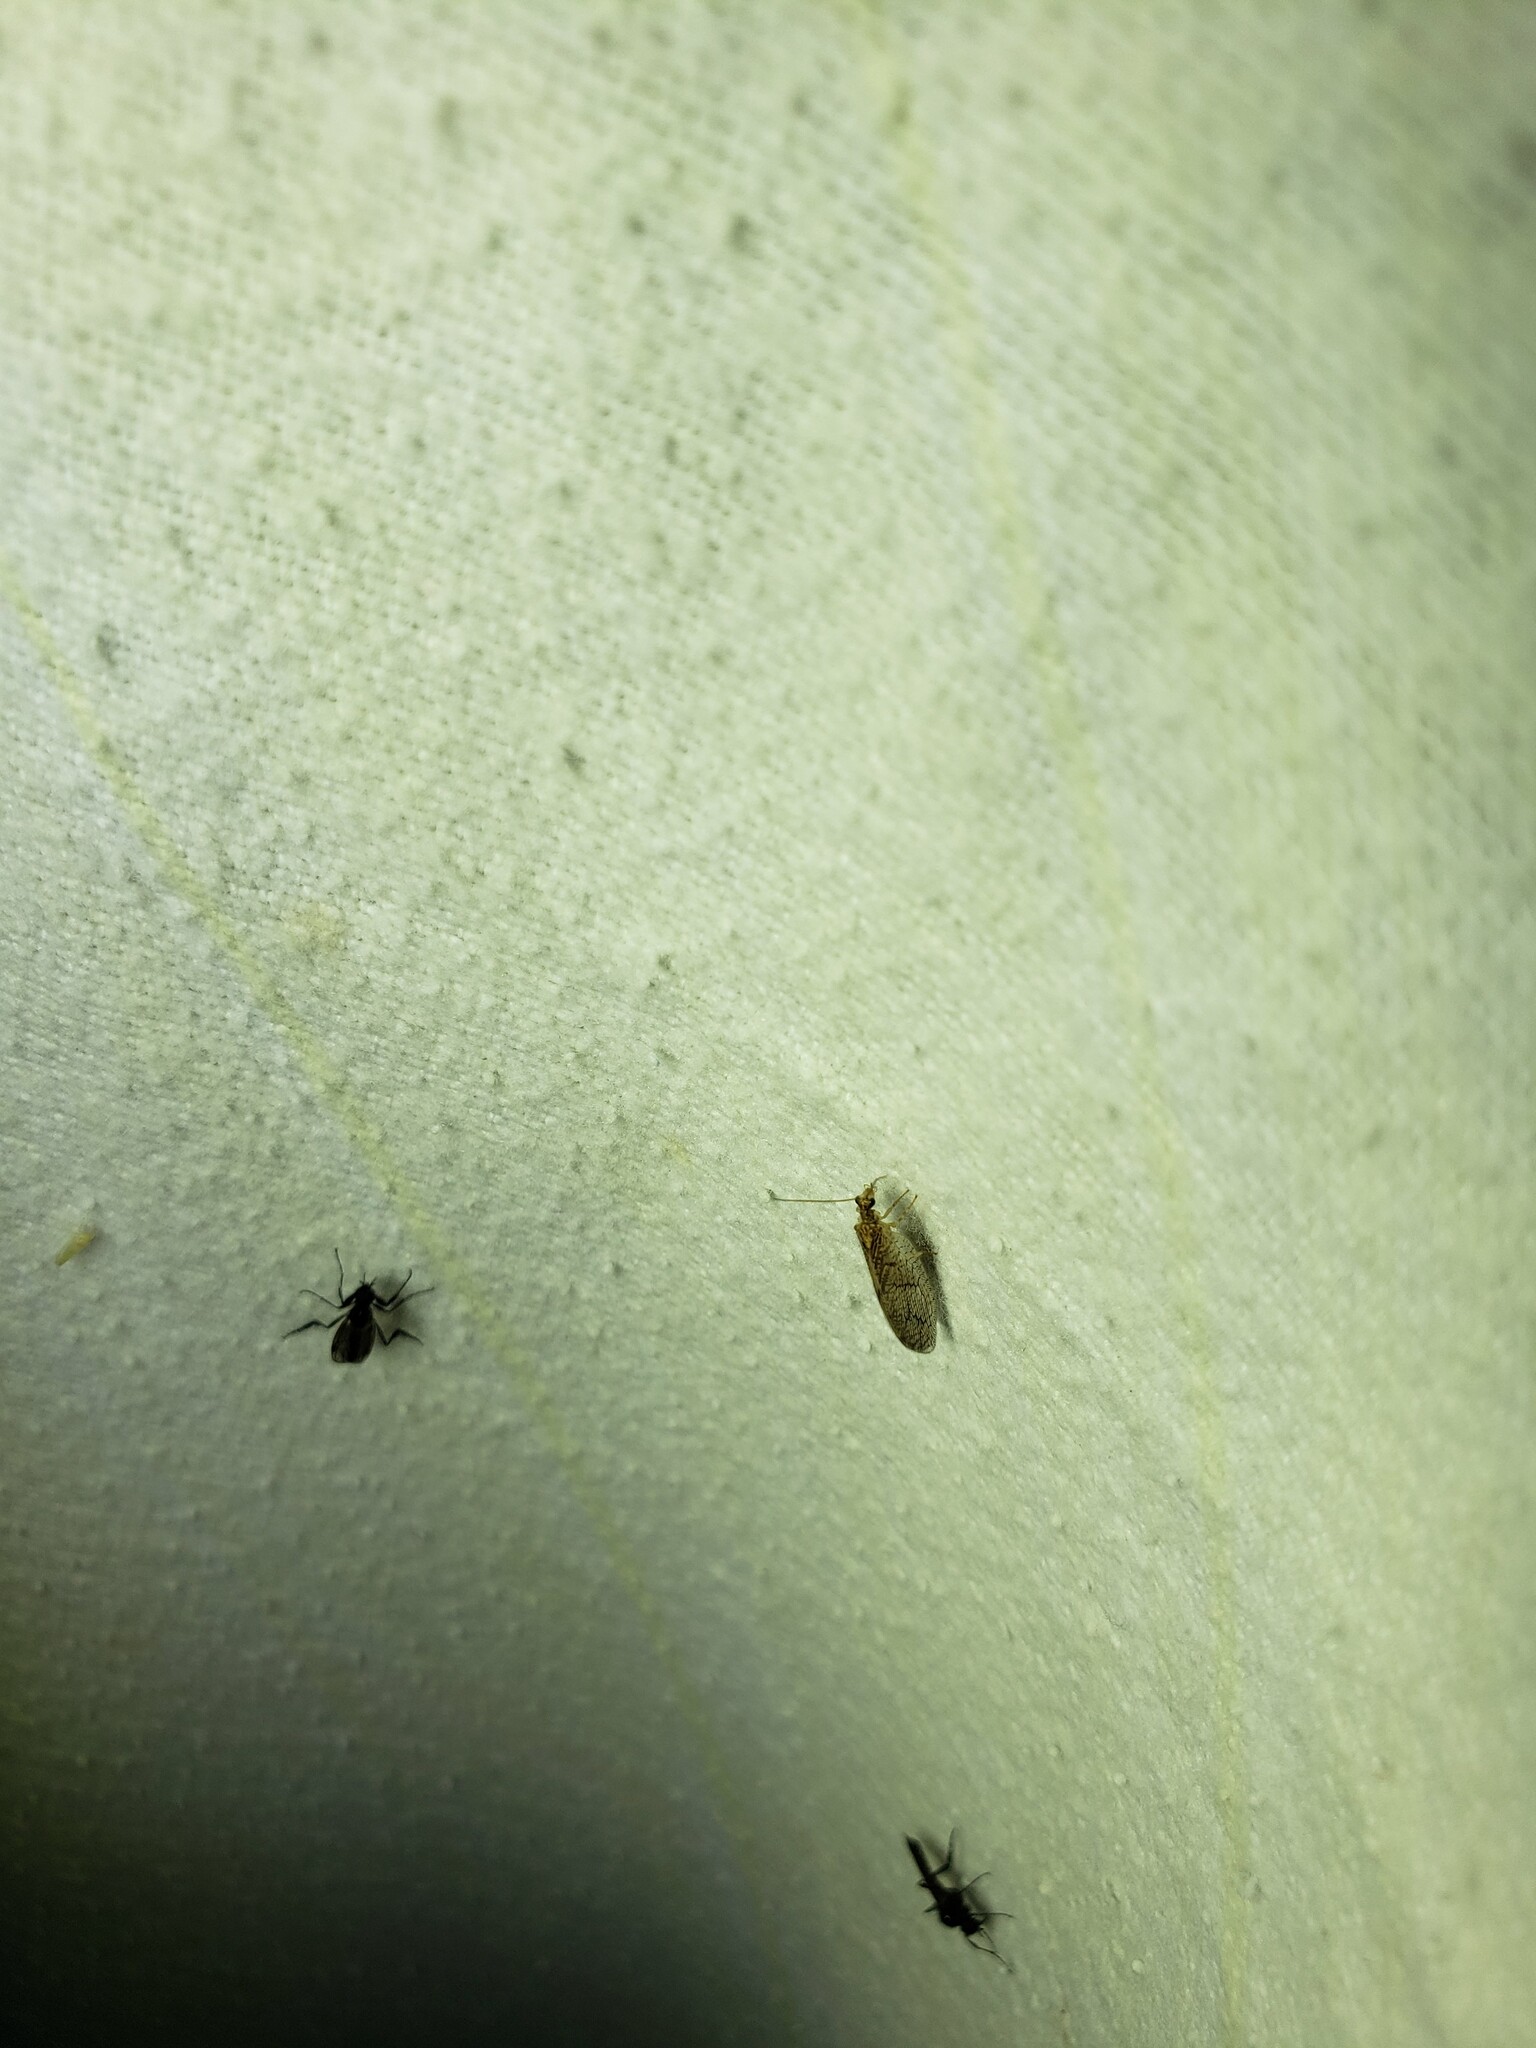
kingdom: Animalia
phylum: Arthropoda
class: Insecta
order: Neuroptera
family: Hemerobiidae
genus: Micromus
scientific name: Micromus posticus
